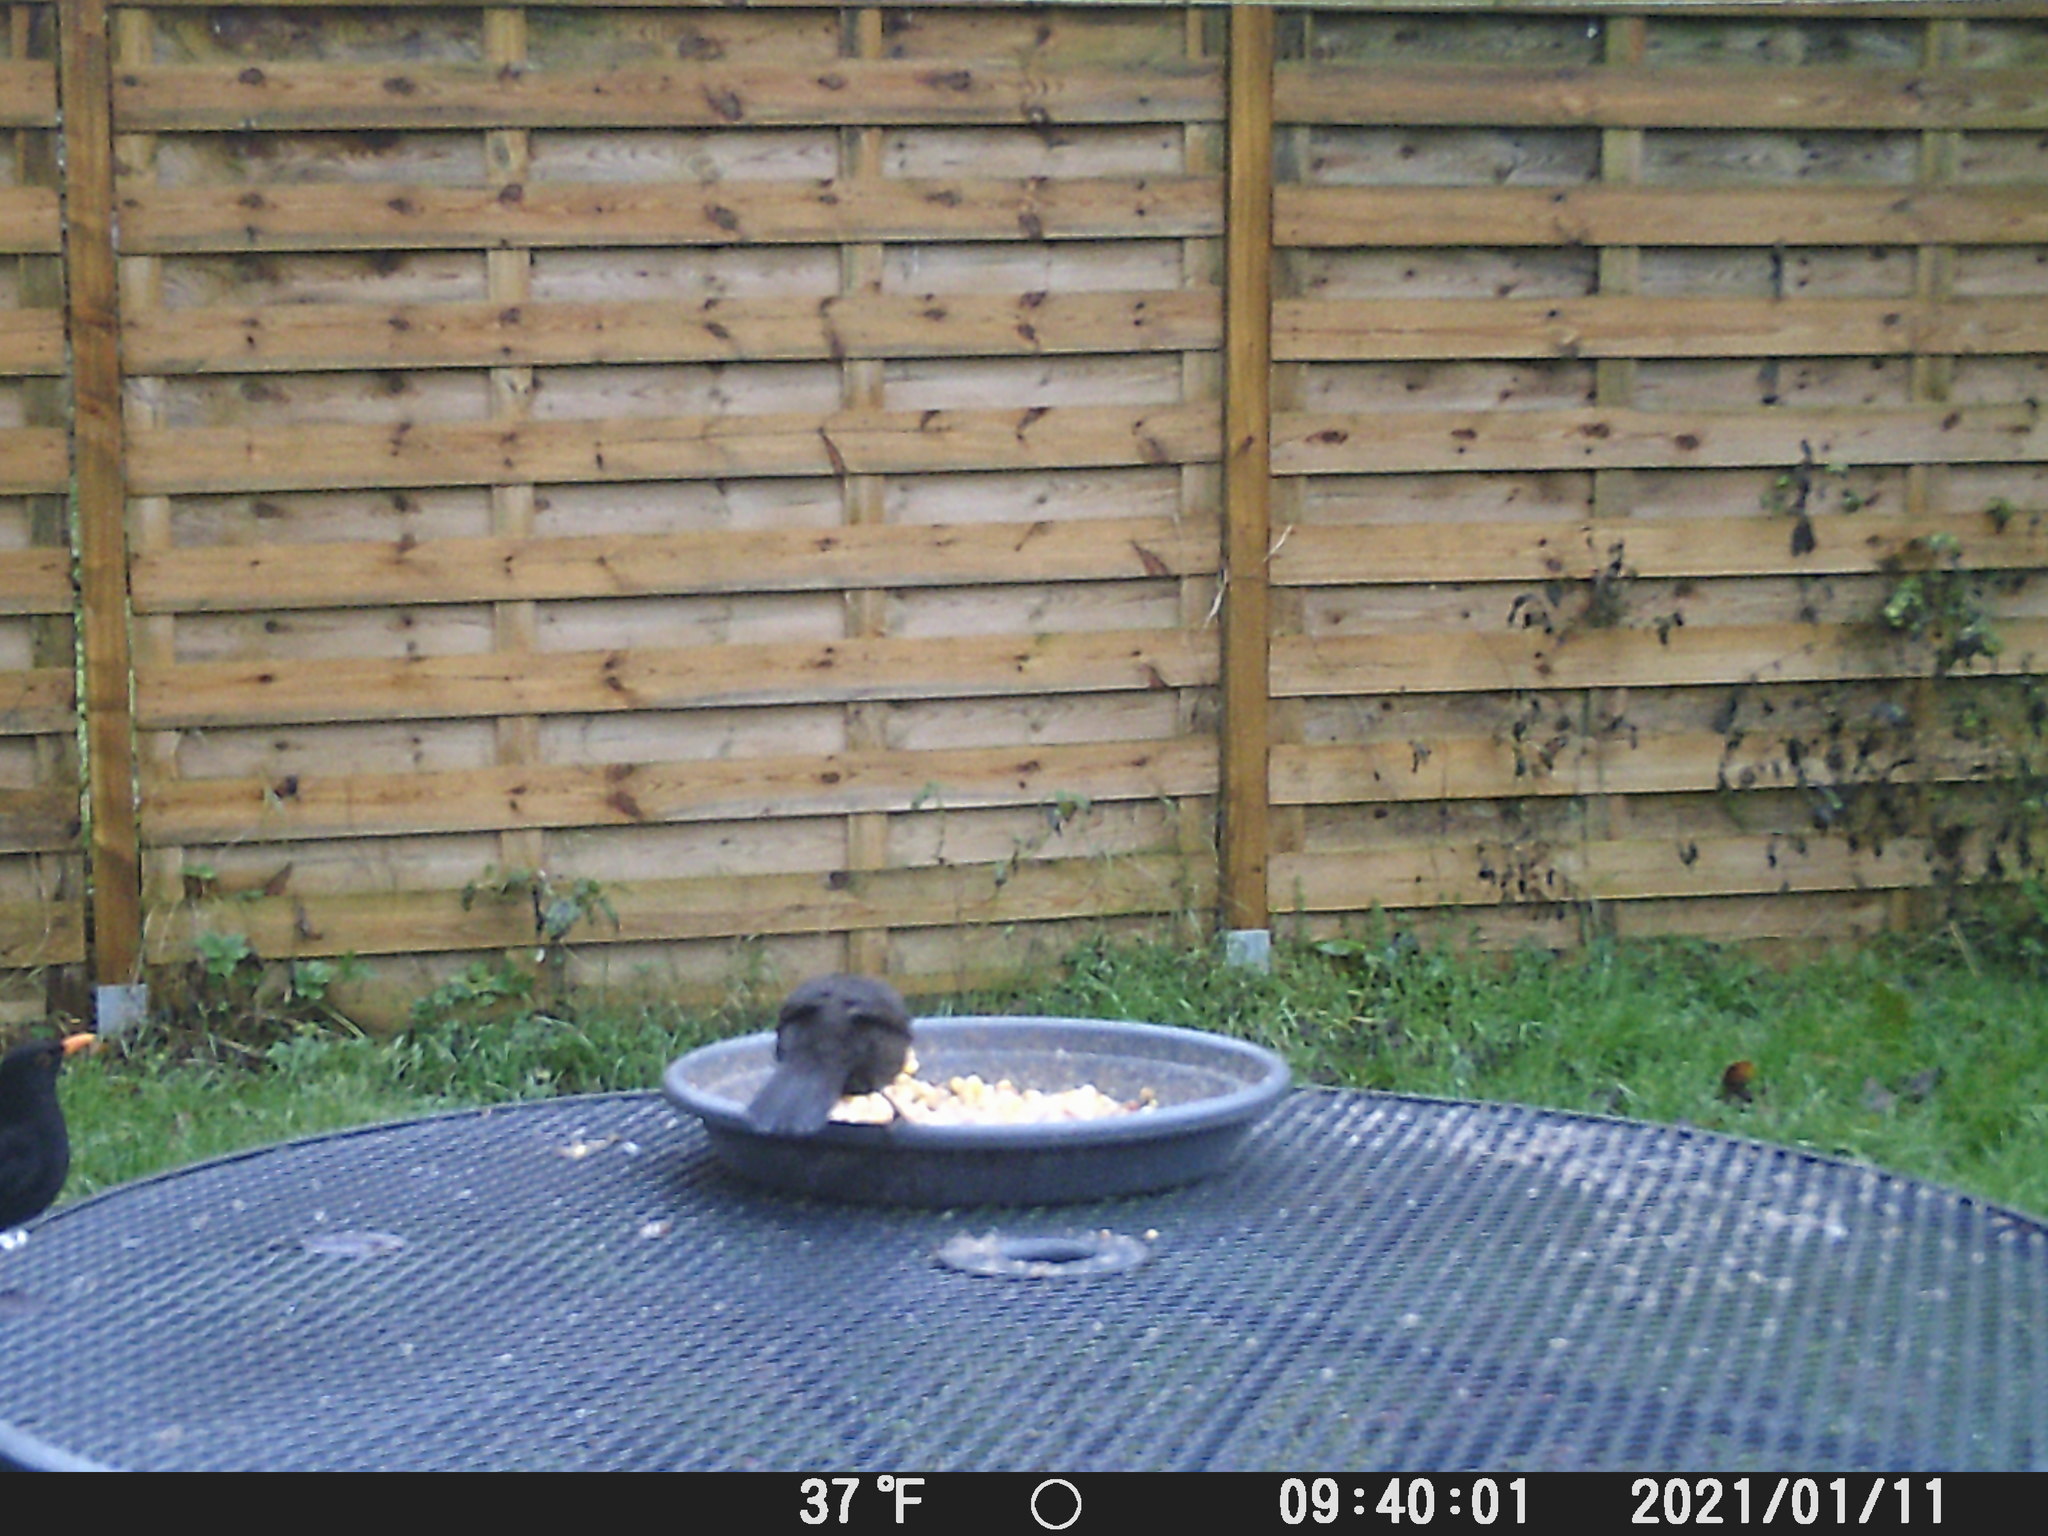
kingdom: Animalia
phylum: Chordata
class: Aves
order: Passeriformes
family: Turdidae
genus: Turdus
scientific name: Turdus merula
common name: Common blackbird
